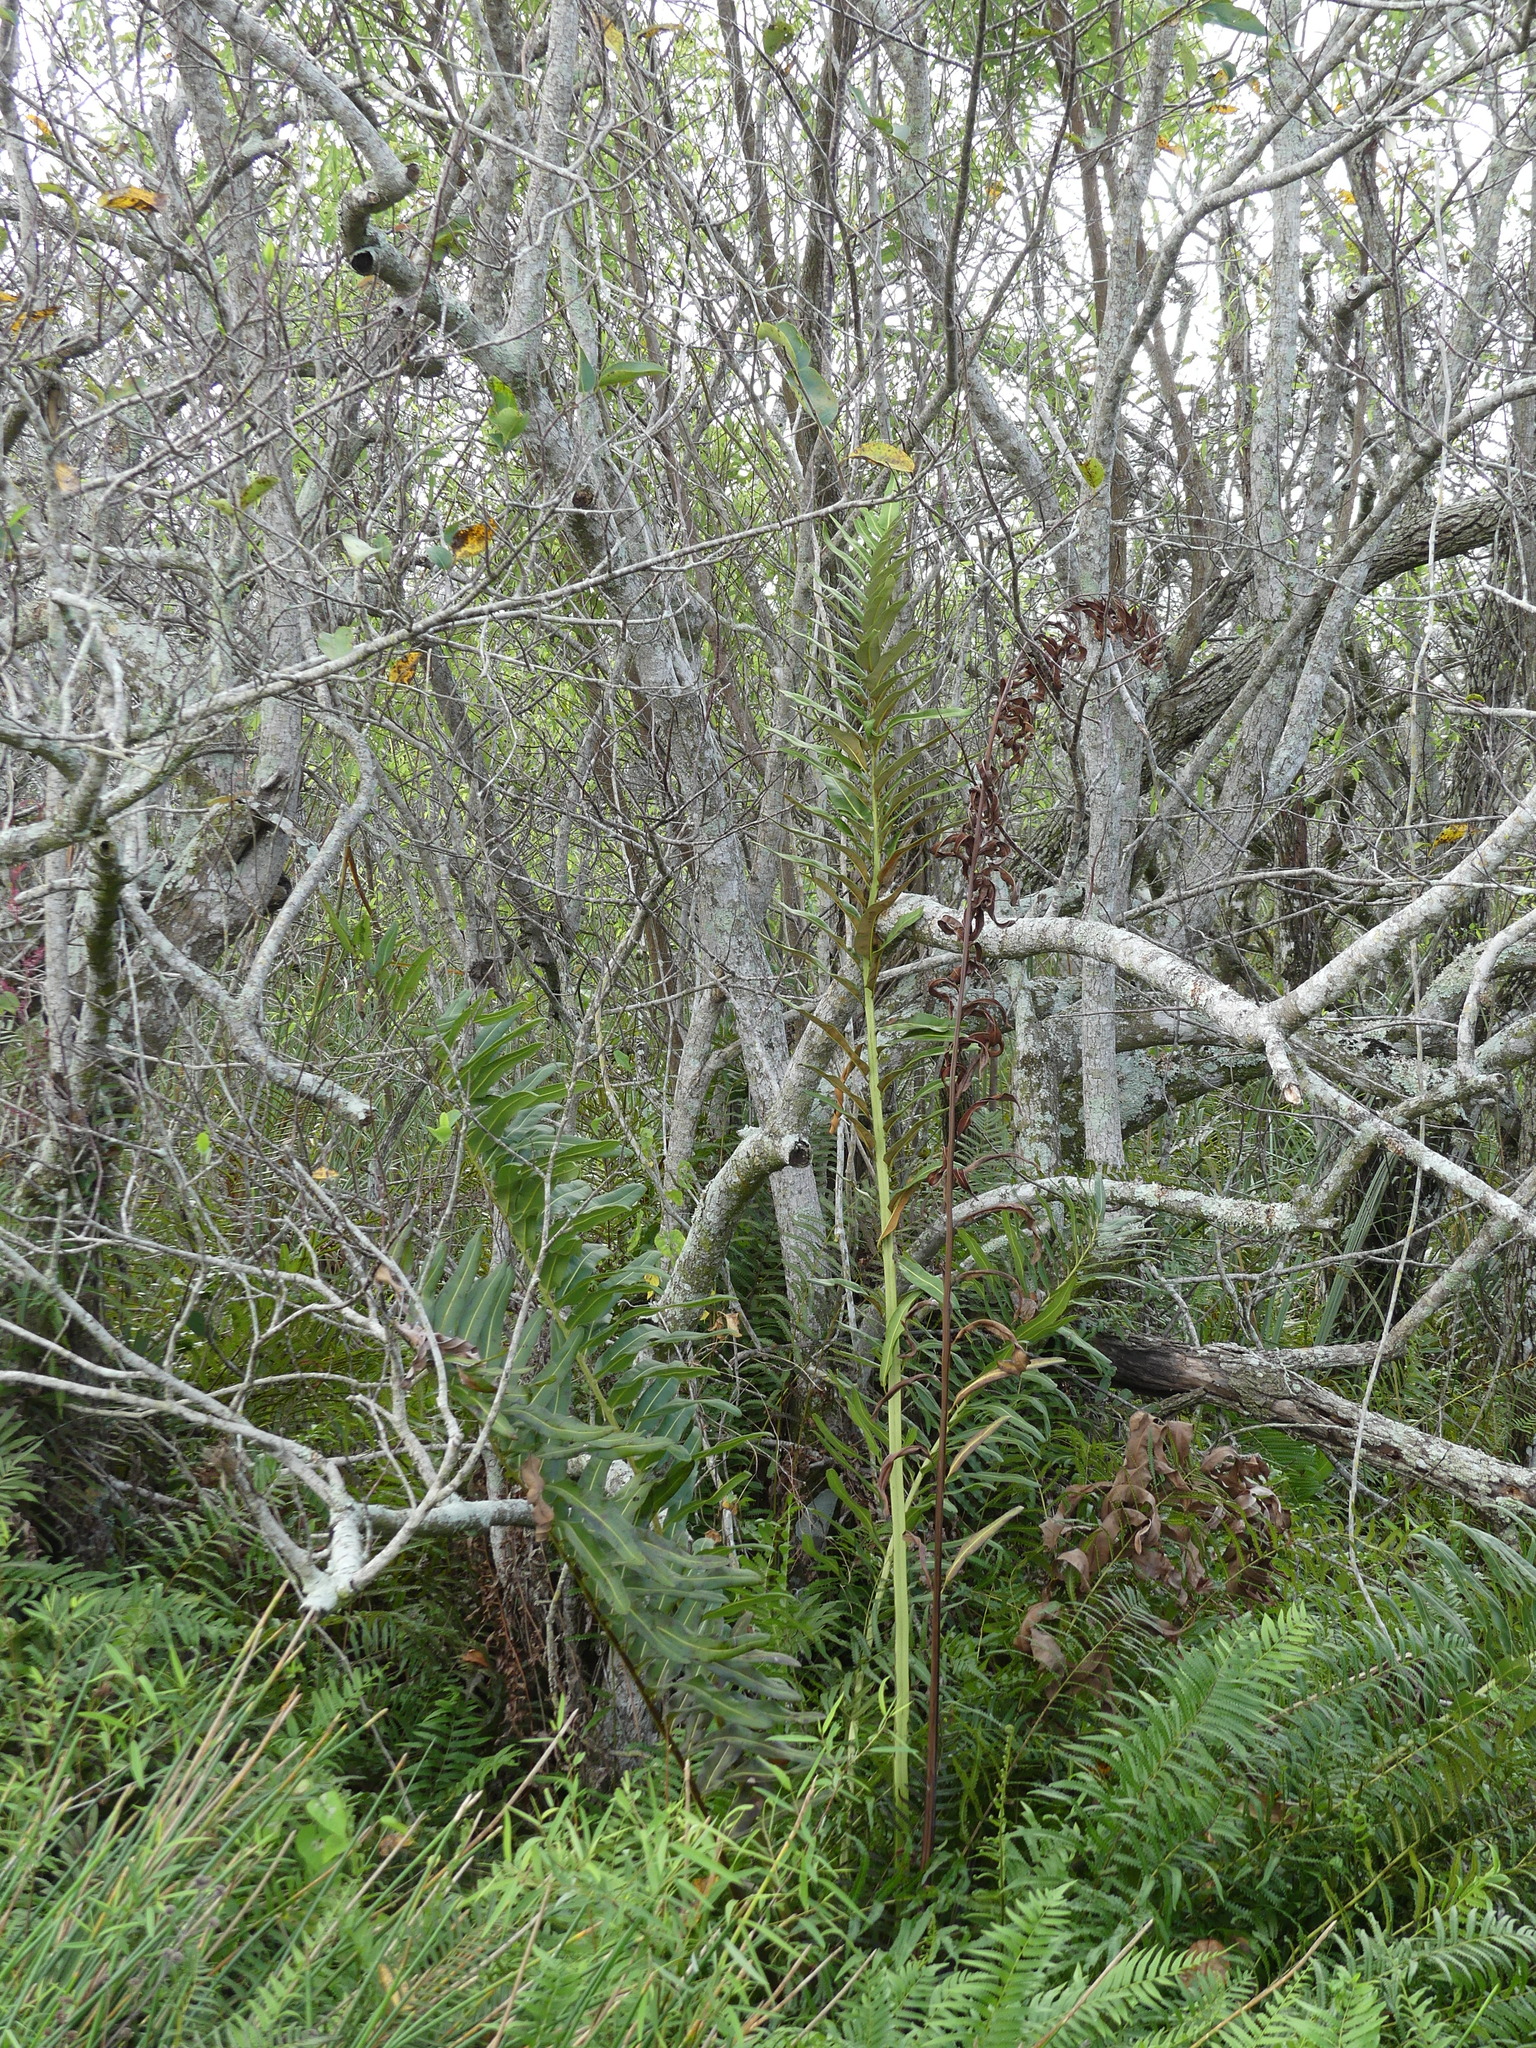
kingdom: Plantae
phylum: Tracheophyta
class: Polypodiopsida
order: Polypodiales
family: Pteridaceae
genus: Acrostichum
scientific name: Acrostichum danaeifolium
